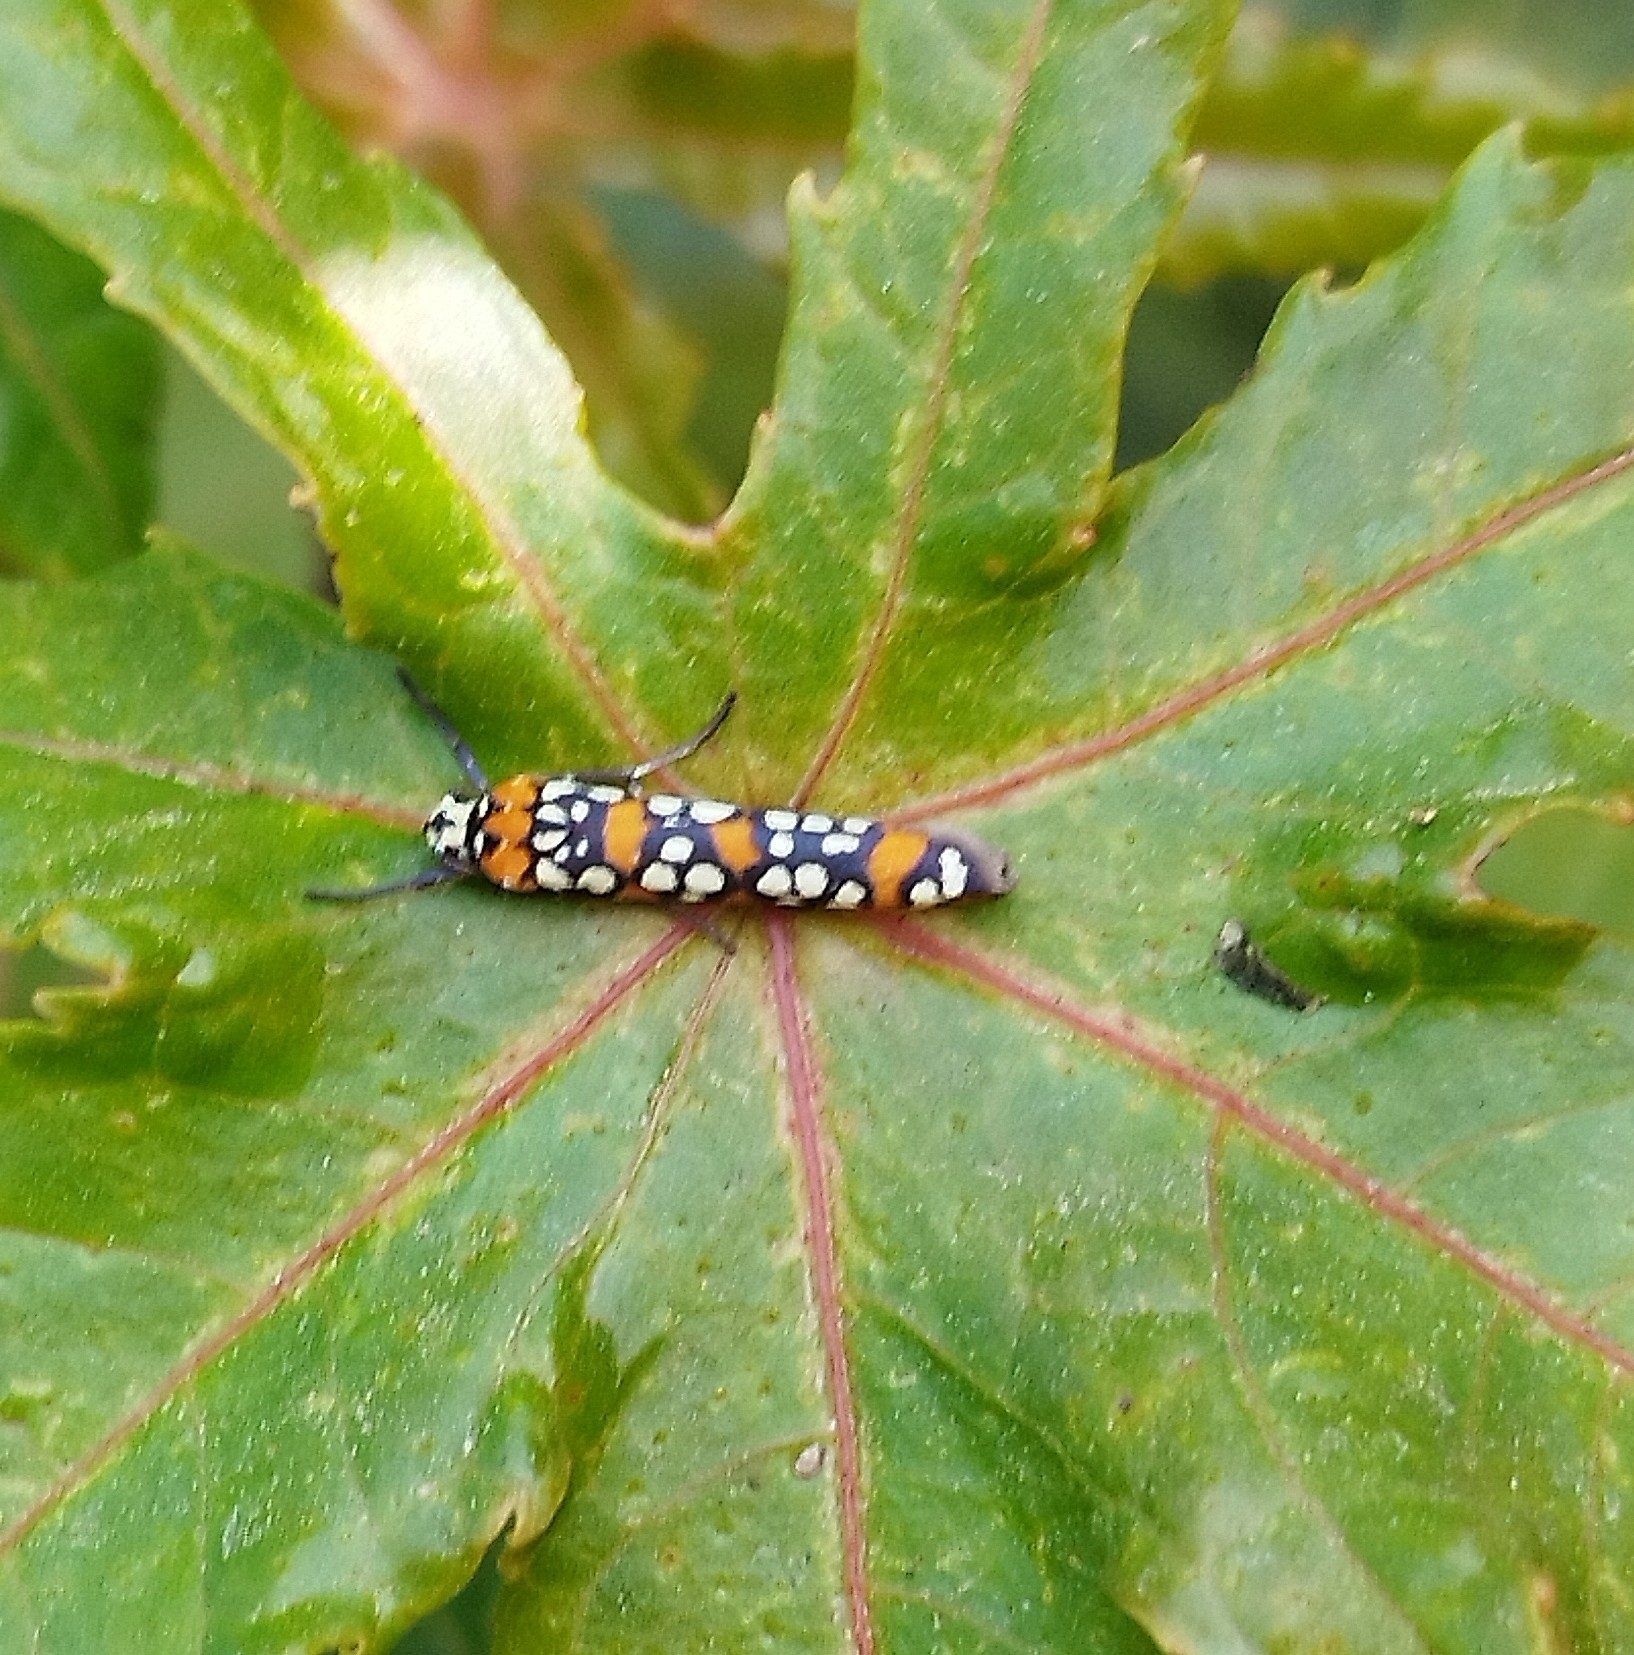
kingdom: Animalia
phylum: Arthropoda
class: Insecta
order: Lepidoptera
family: Attevidae
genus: Atteva
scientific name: Atteva punctella
